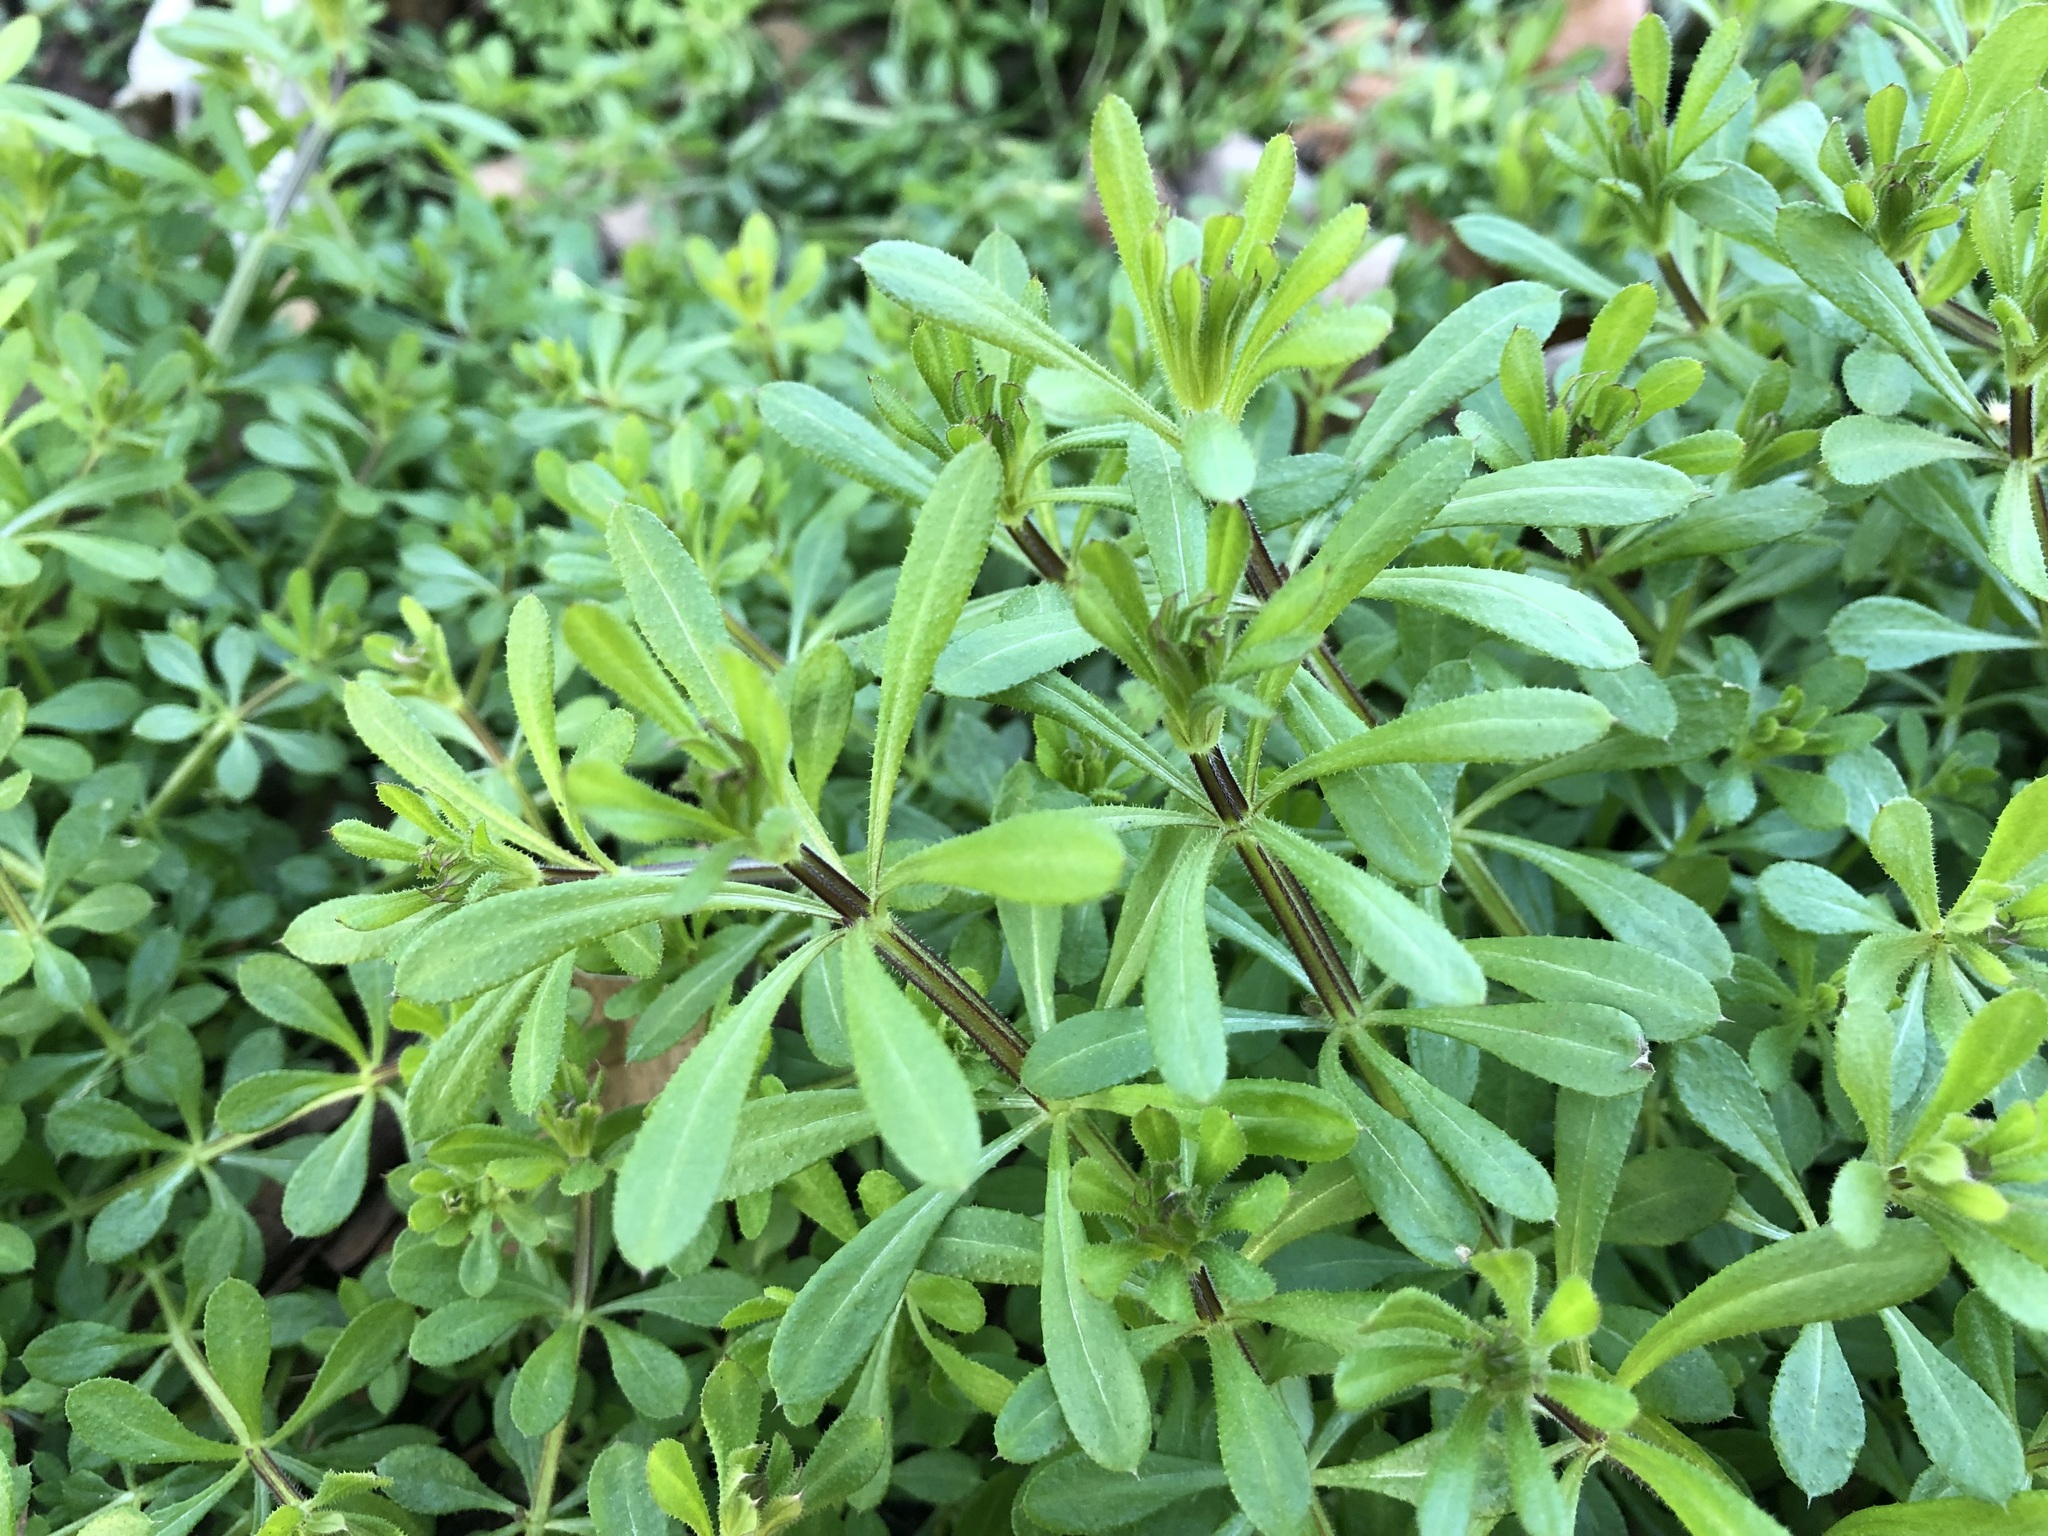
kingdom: Plantae
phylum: Tracheophyta
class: Magnoliopsida
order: Gentianales
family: Rubiaceae
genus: Galium
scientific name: Galium aparine
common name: Cleavers
